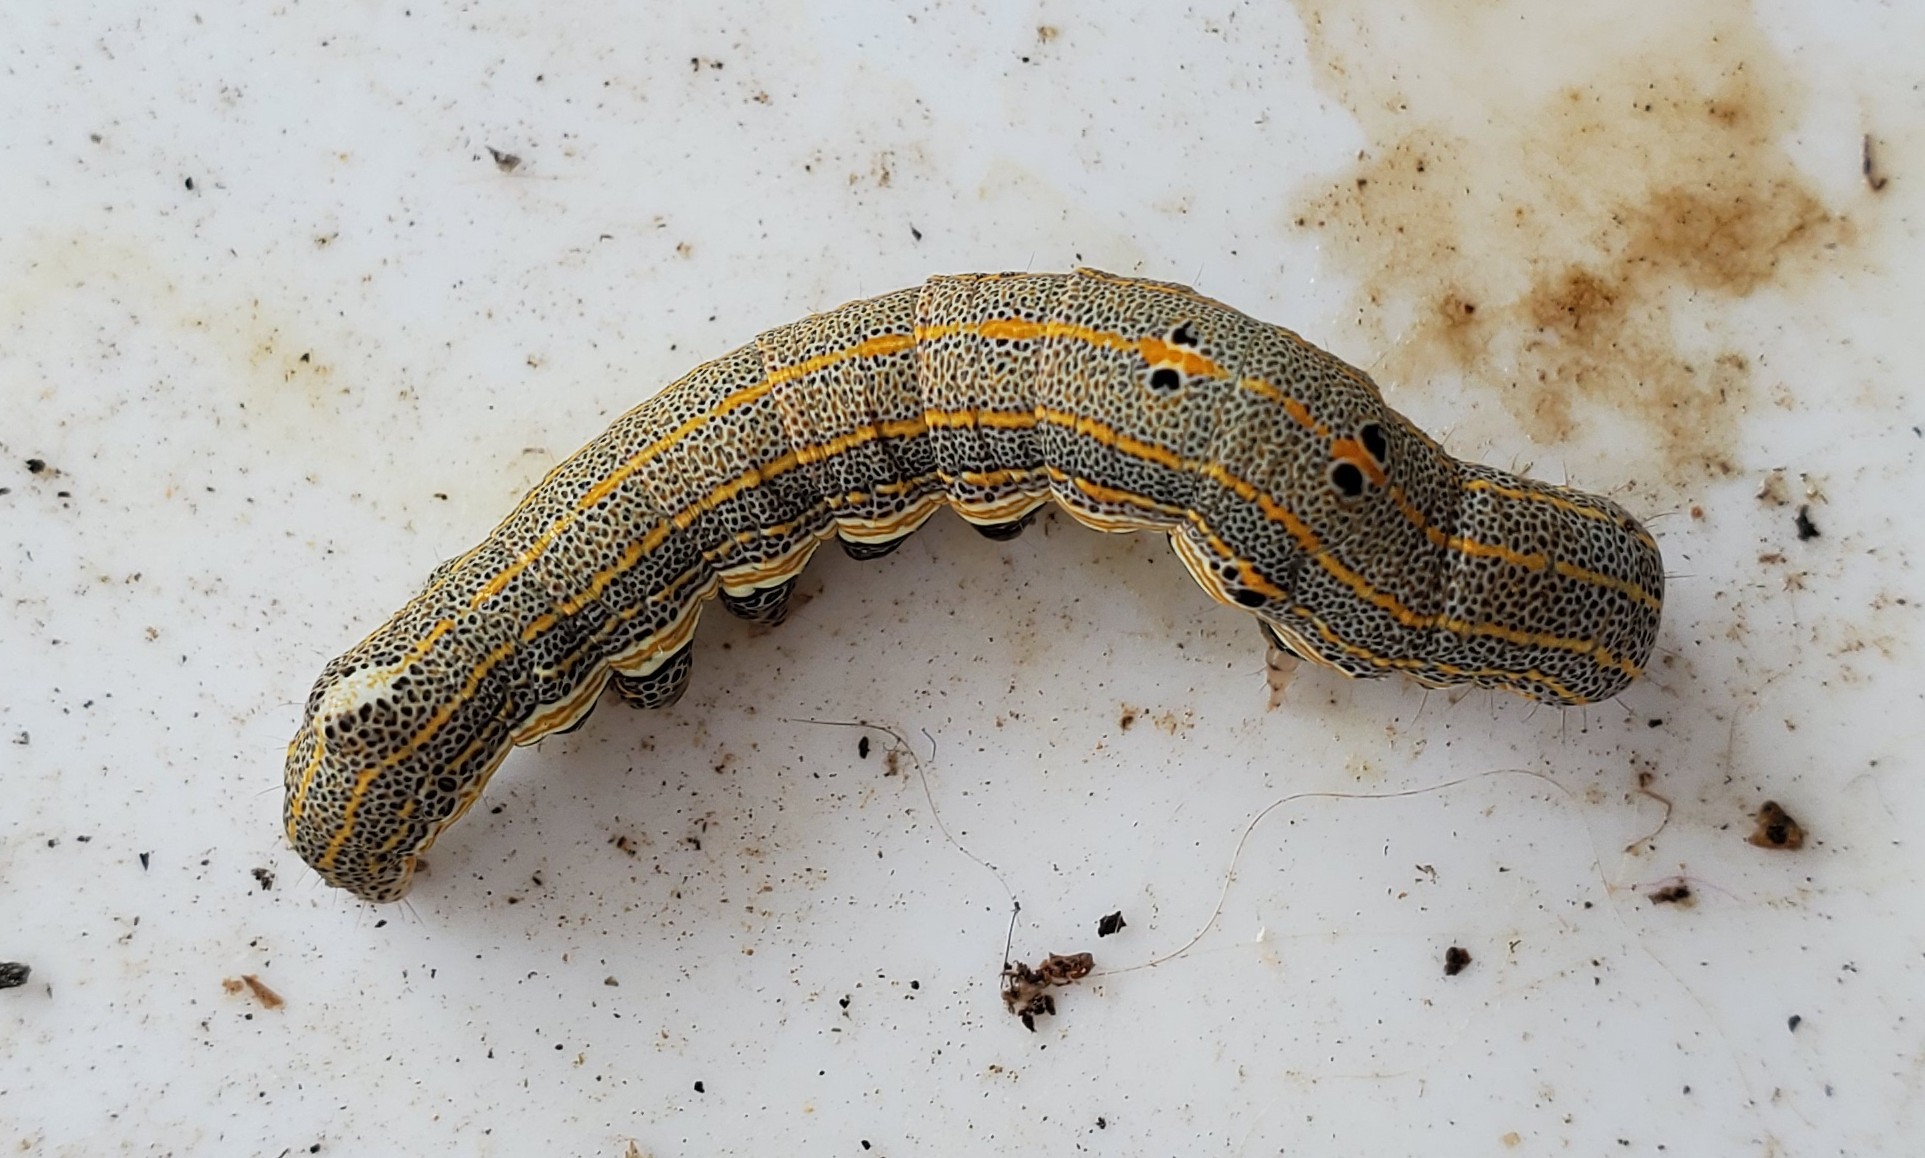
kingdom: Animalia
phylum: Arthropoda
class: Insecta
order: Lepidoptera
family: Noctuidae
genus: Aedia
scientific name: Aedia leucomelas
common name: Sorcerer
